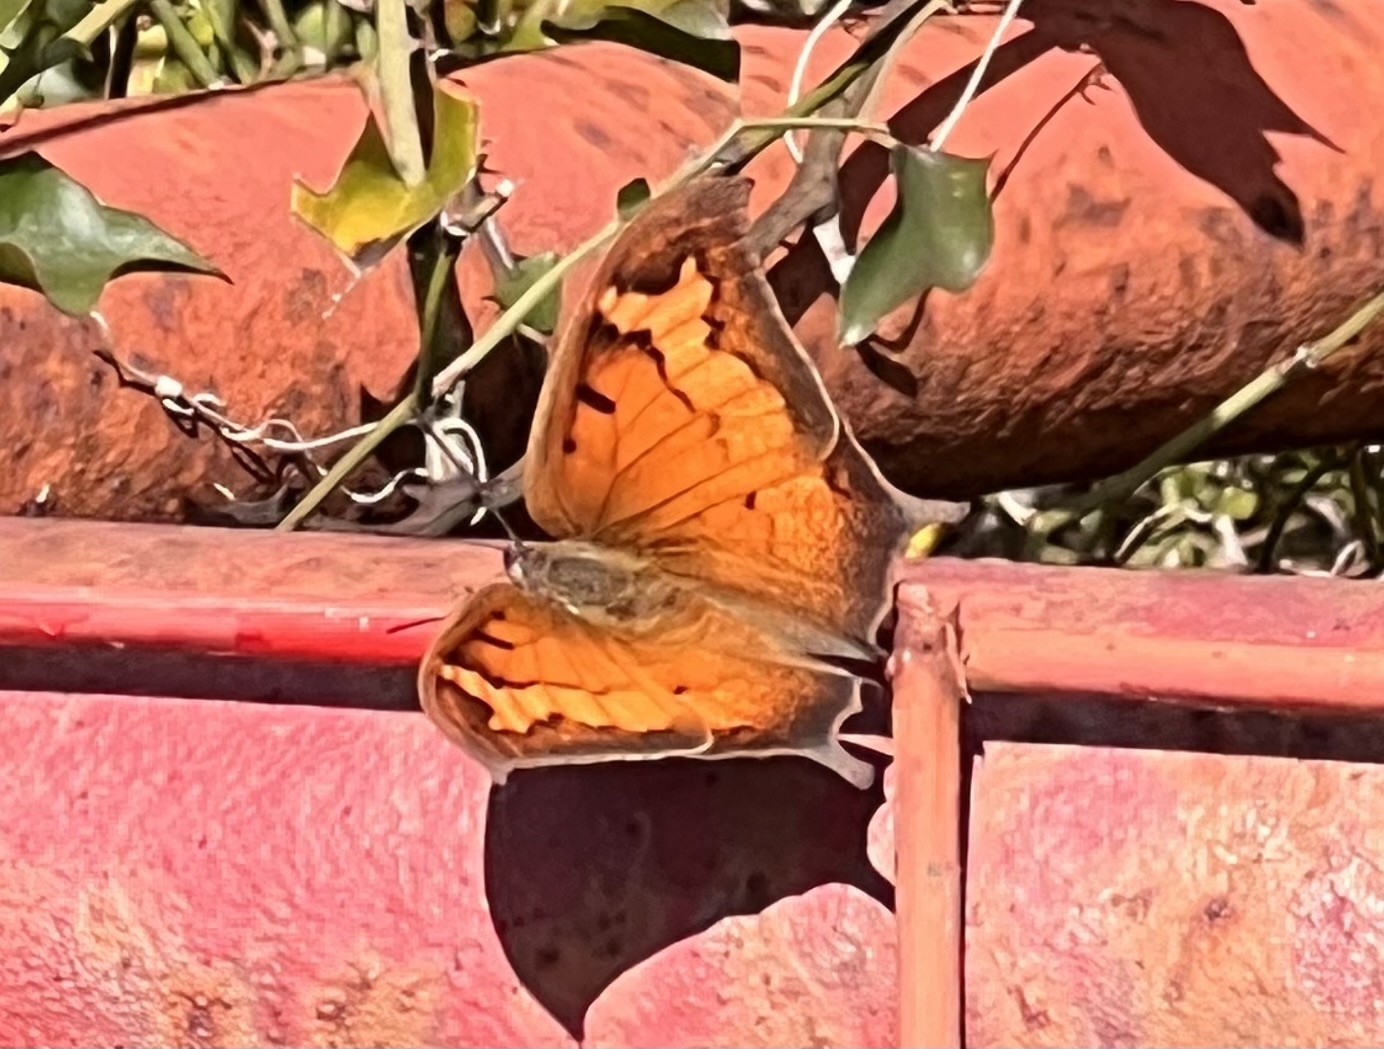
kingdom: Animalia
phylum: Arthropoda
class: Insecta
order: Lepidoptera
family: Nymphalidae
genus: Anaea
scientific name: Anaea andria
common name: Goatweed leafwing
